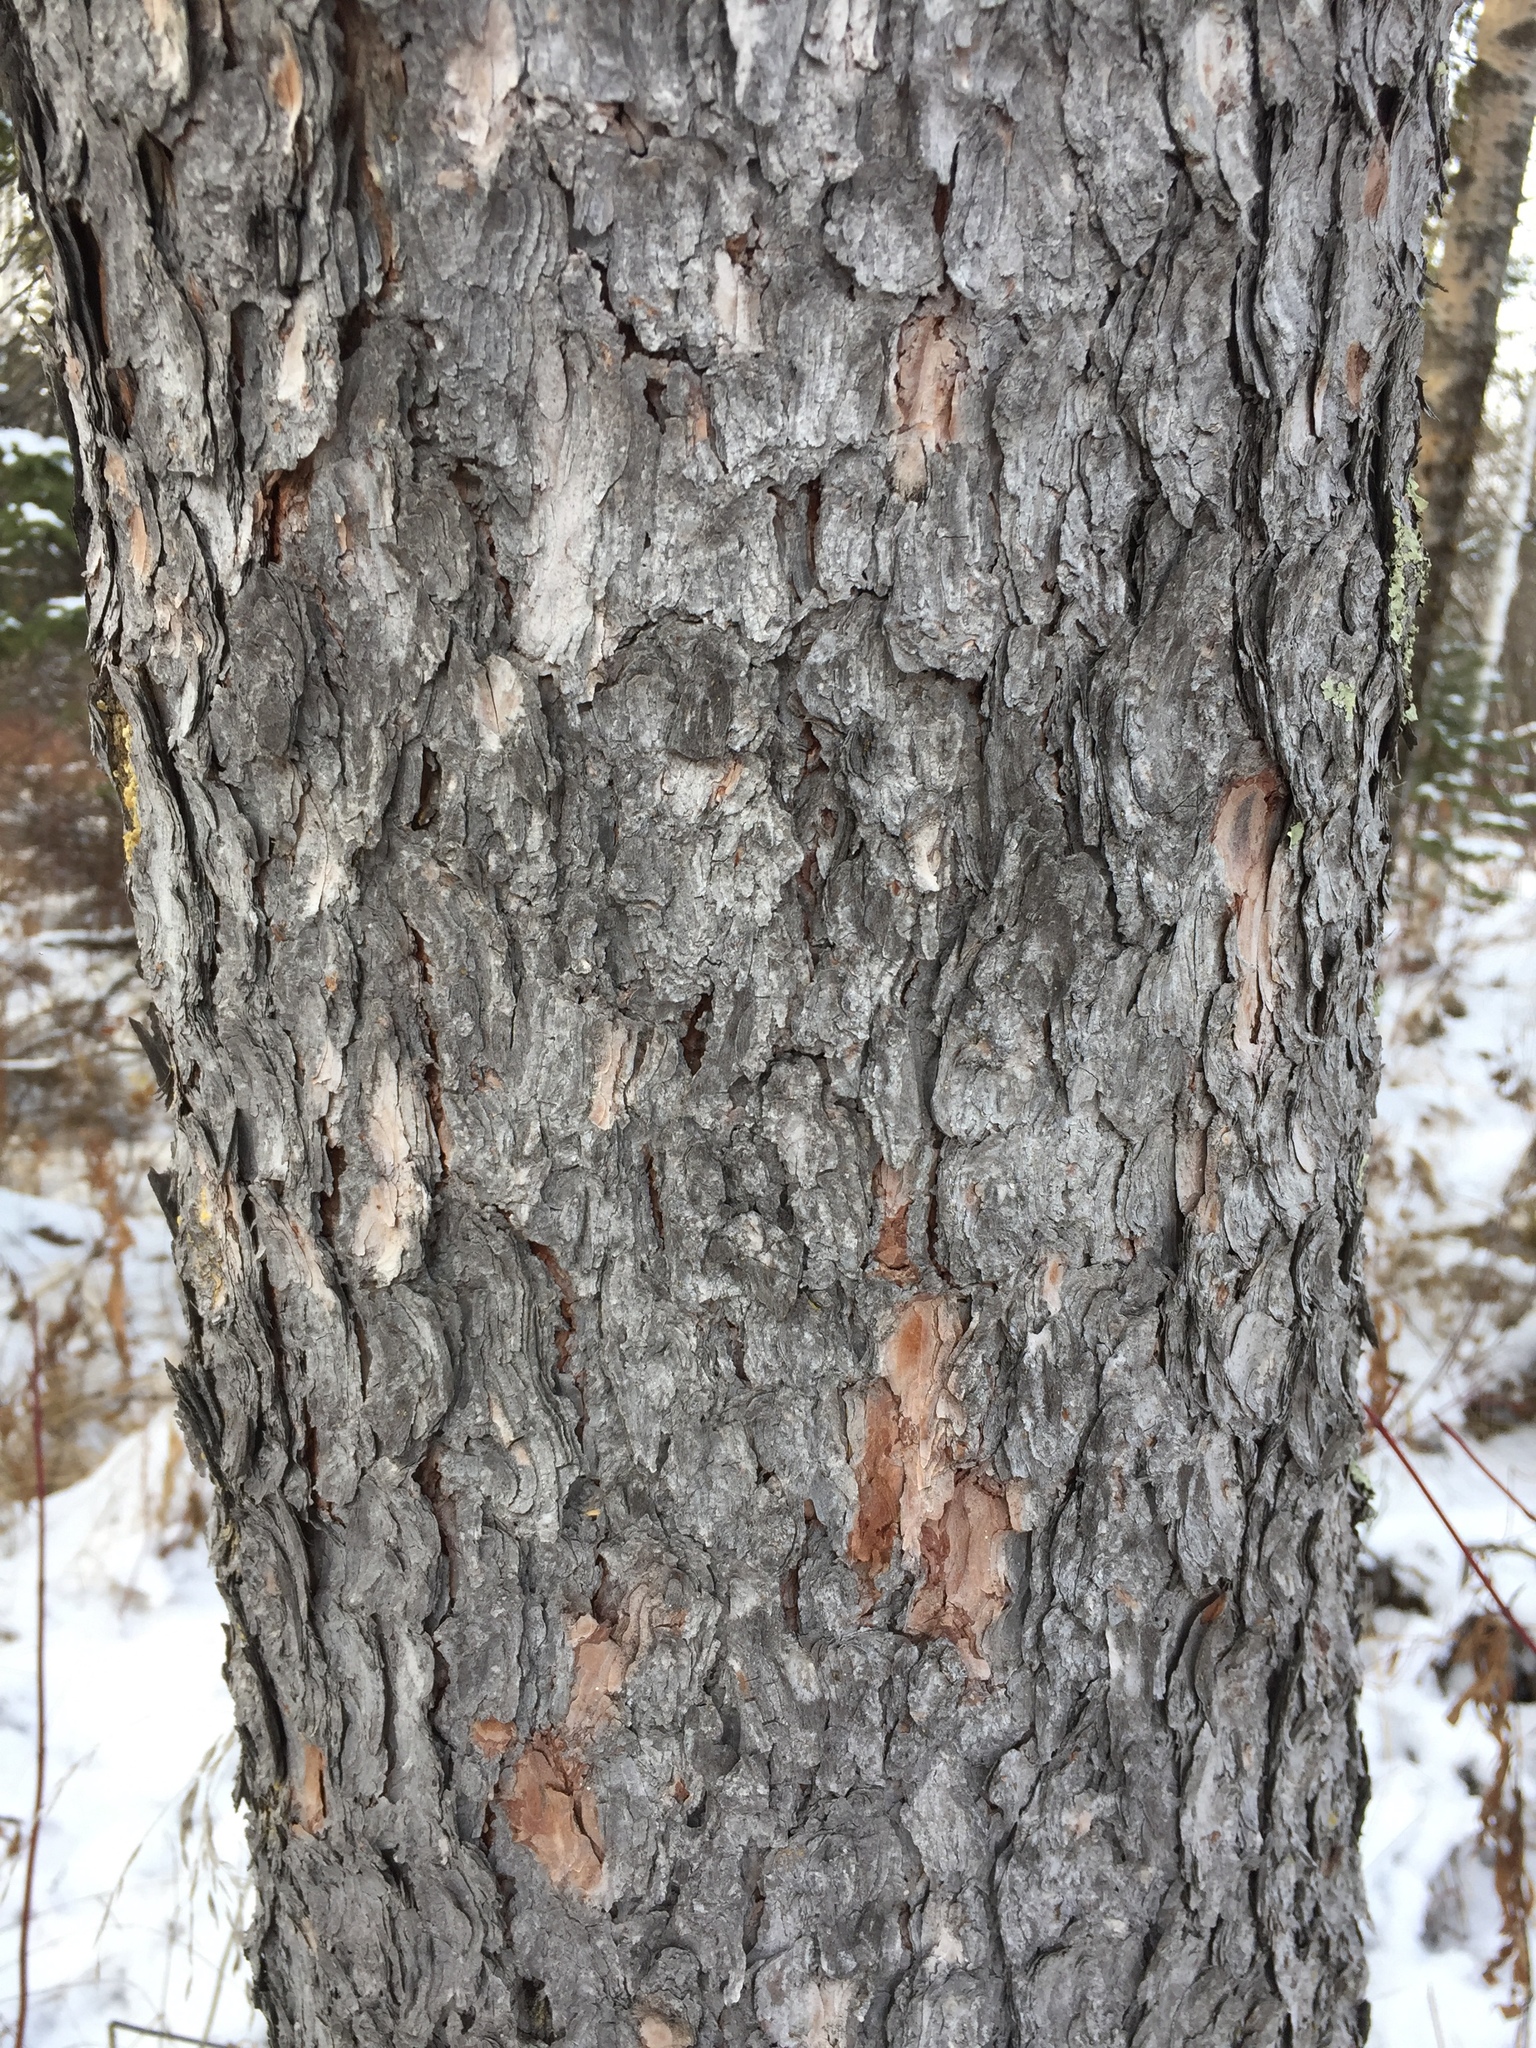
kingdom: Plantae
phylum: Tracheophyta
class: Pinopsida
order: Pinales
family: Pinaceae
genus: Larix
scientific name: Larix laricina
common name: American larch
